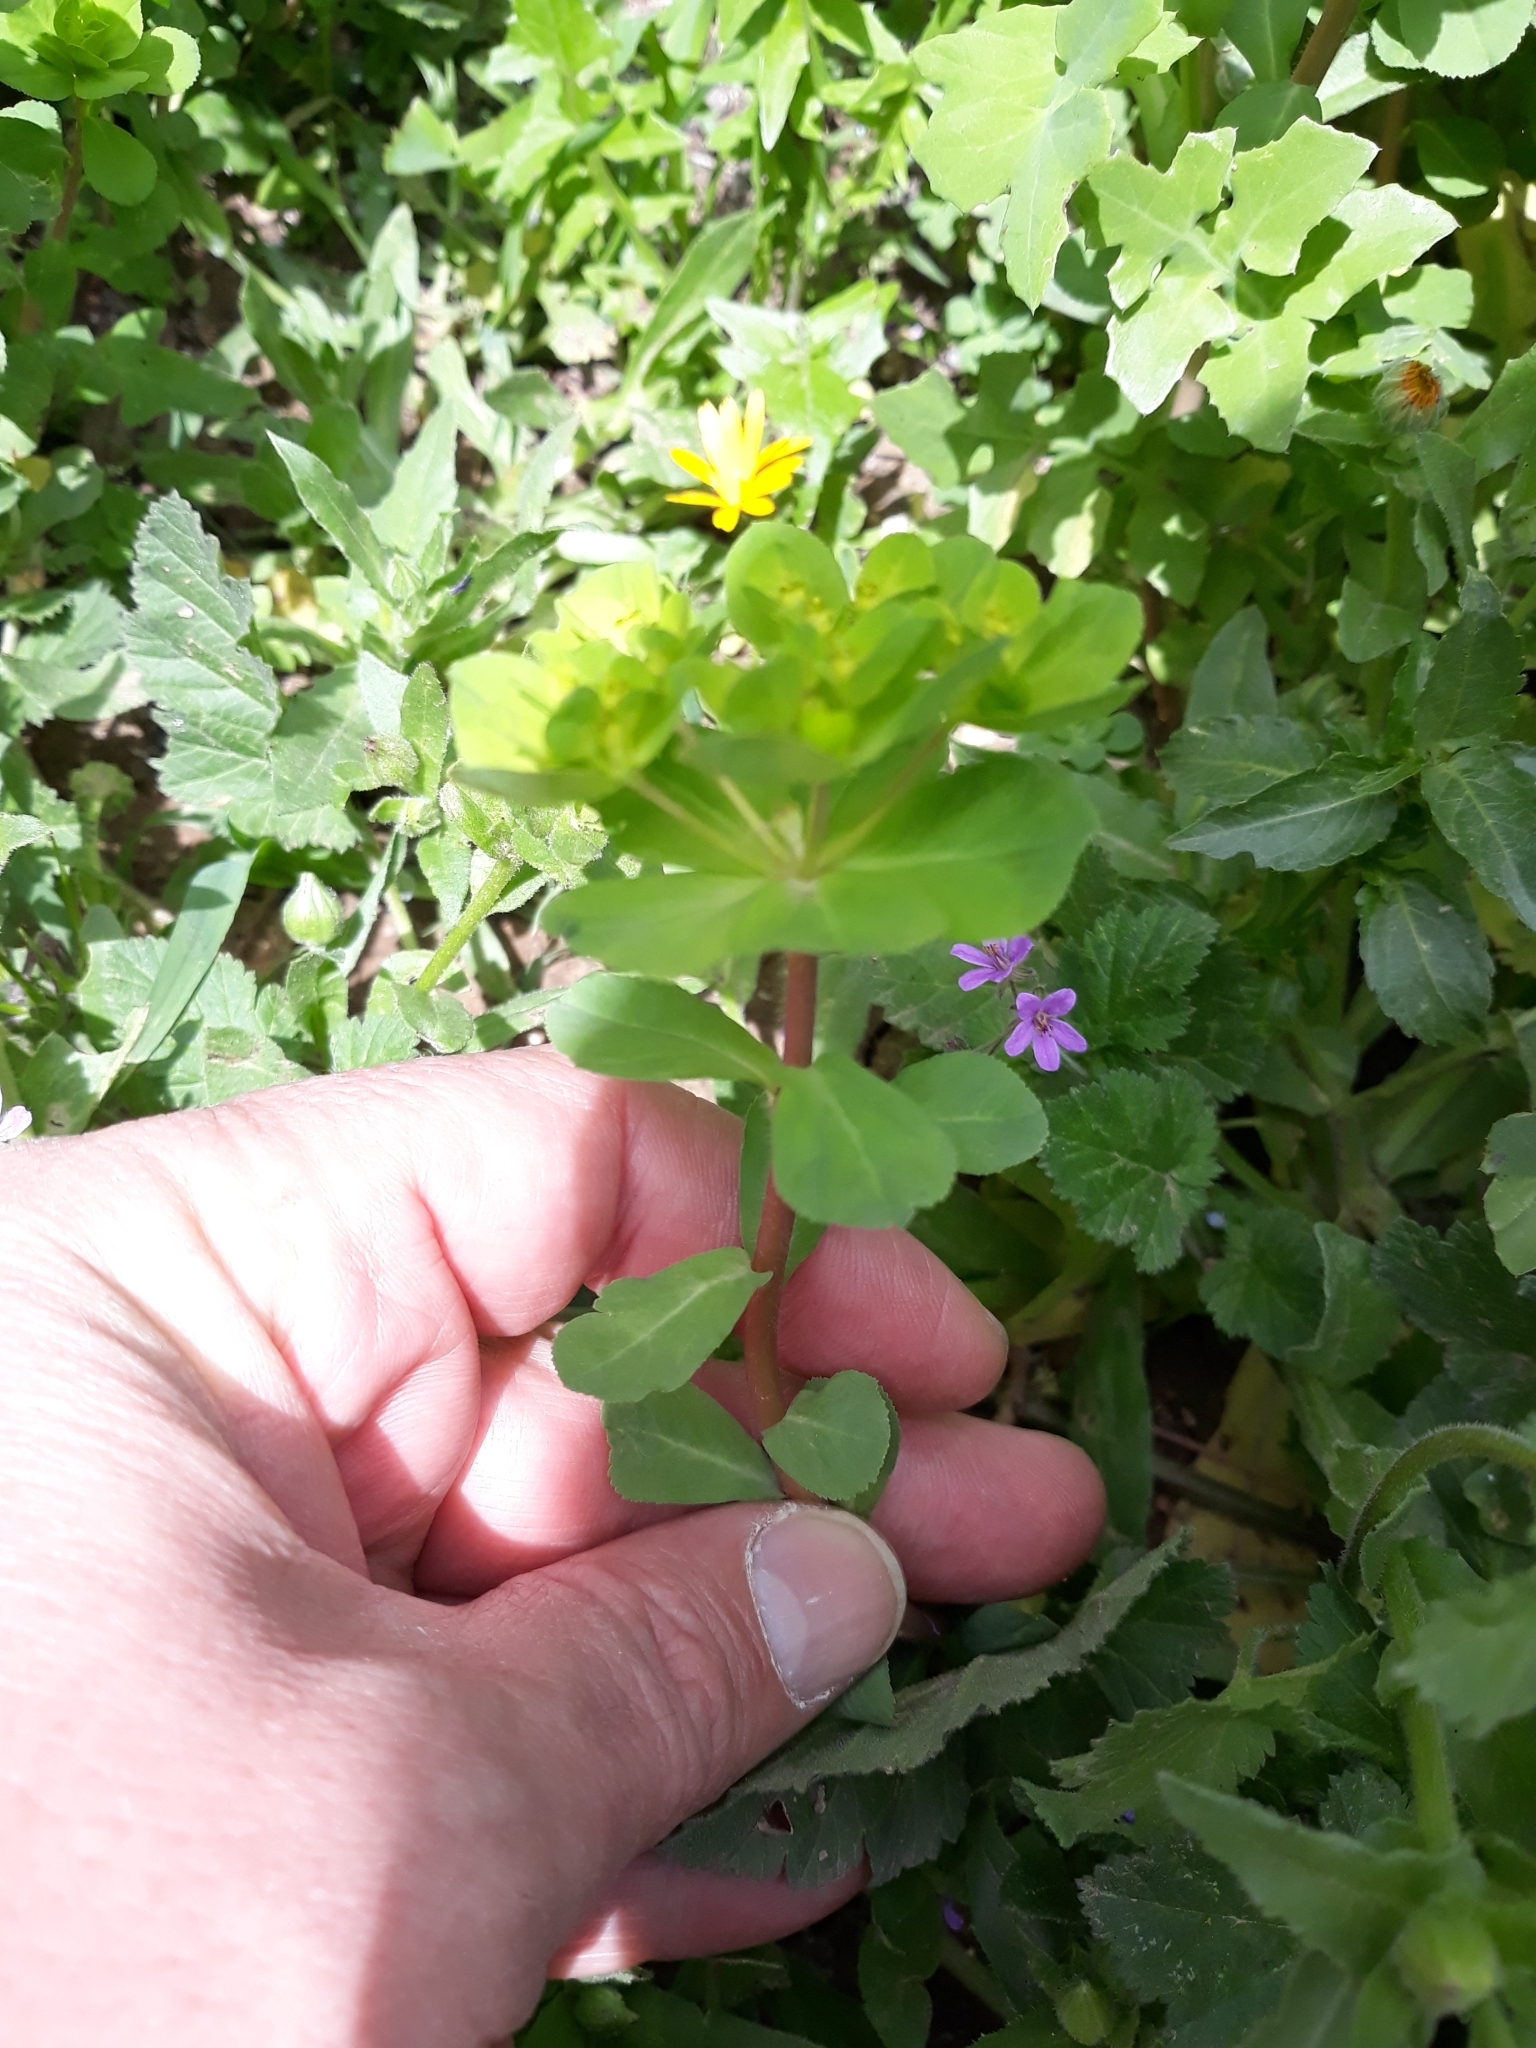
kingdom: Plantae
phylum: Tracheophyta
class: Magnoliopsida
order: Malpighiales
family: Euphorbiaceae
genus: Euphorbia
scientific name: Euphorbia helioscopia
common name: Sun spurge
